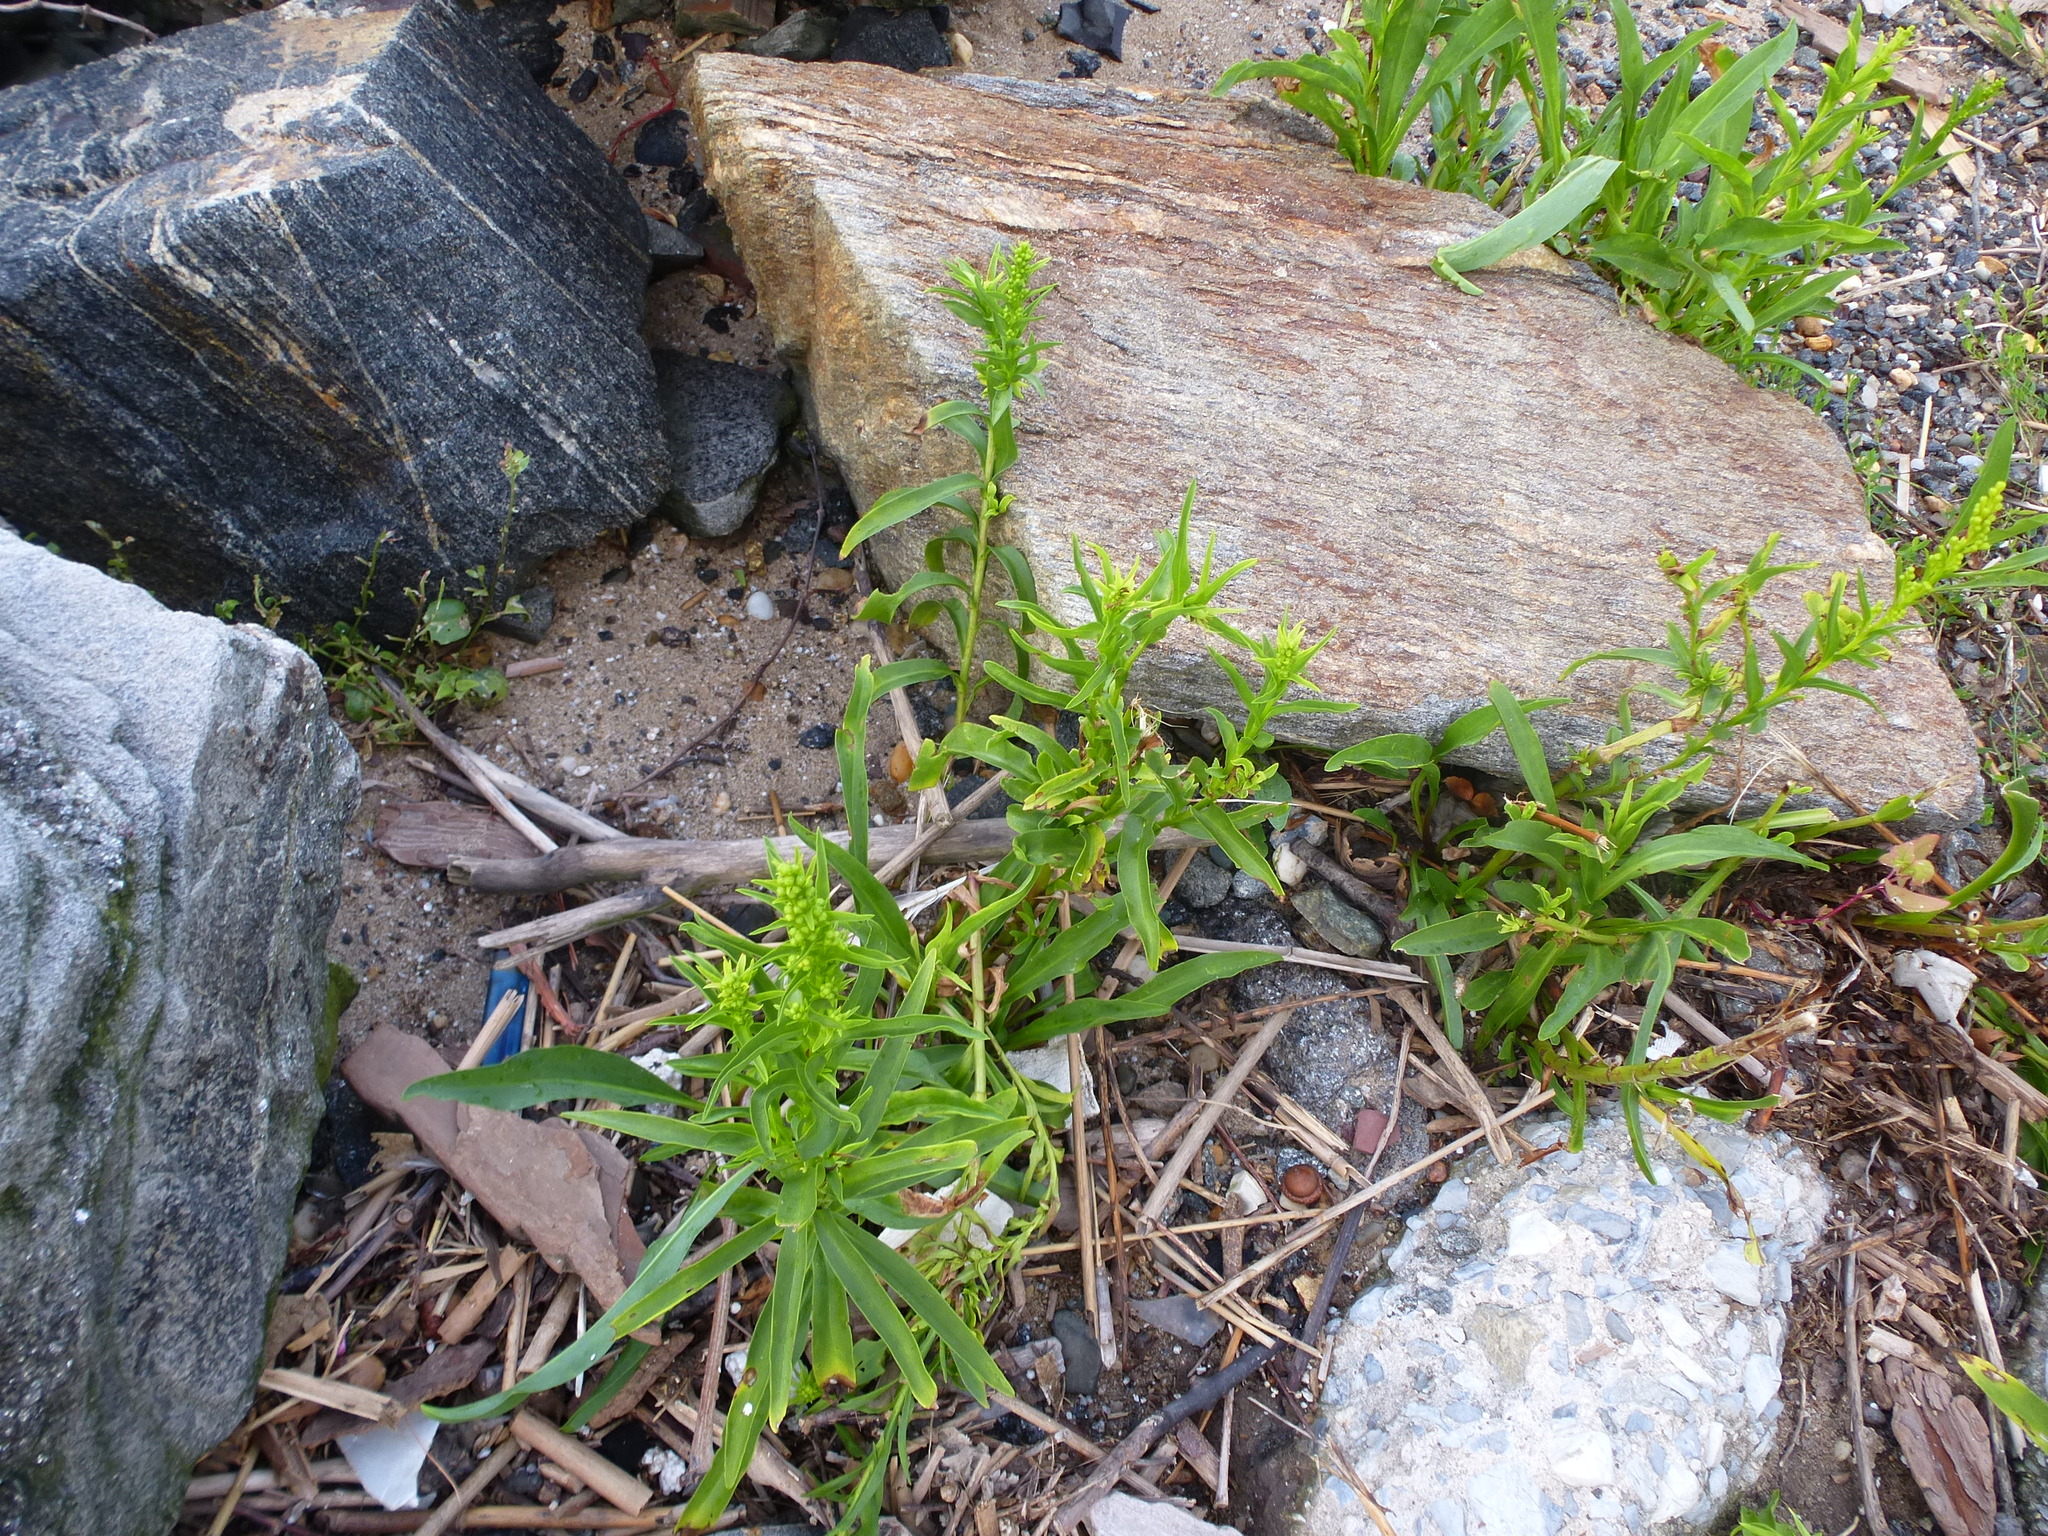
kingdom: Plantae
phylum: Tracheophyta
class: Magnoliopsida
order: Asterales
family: Asteraceae
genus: Solidago
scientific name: Solidago sempervirens
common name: Salt-marsh goldenrod
